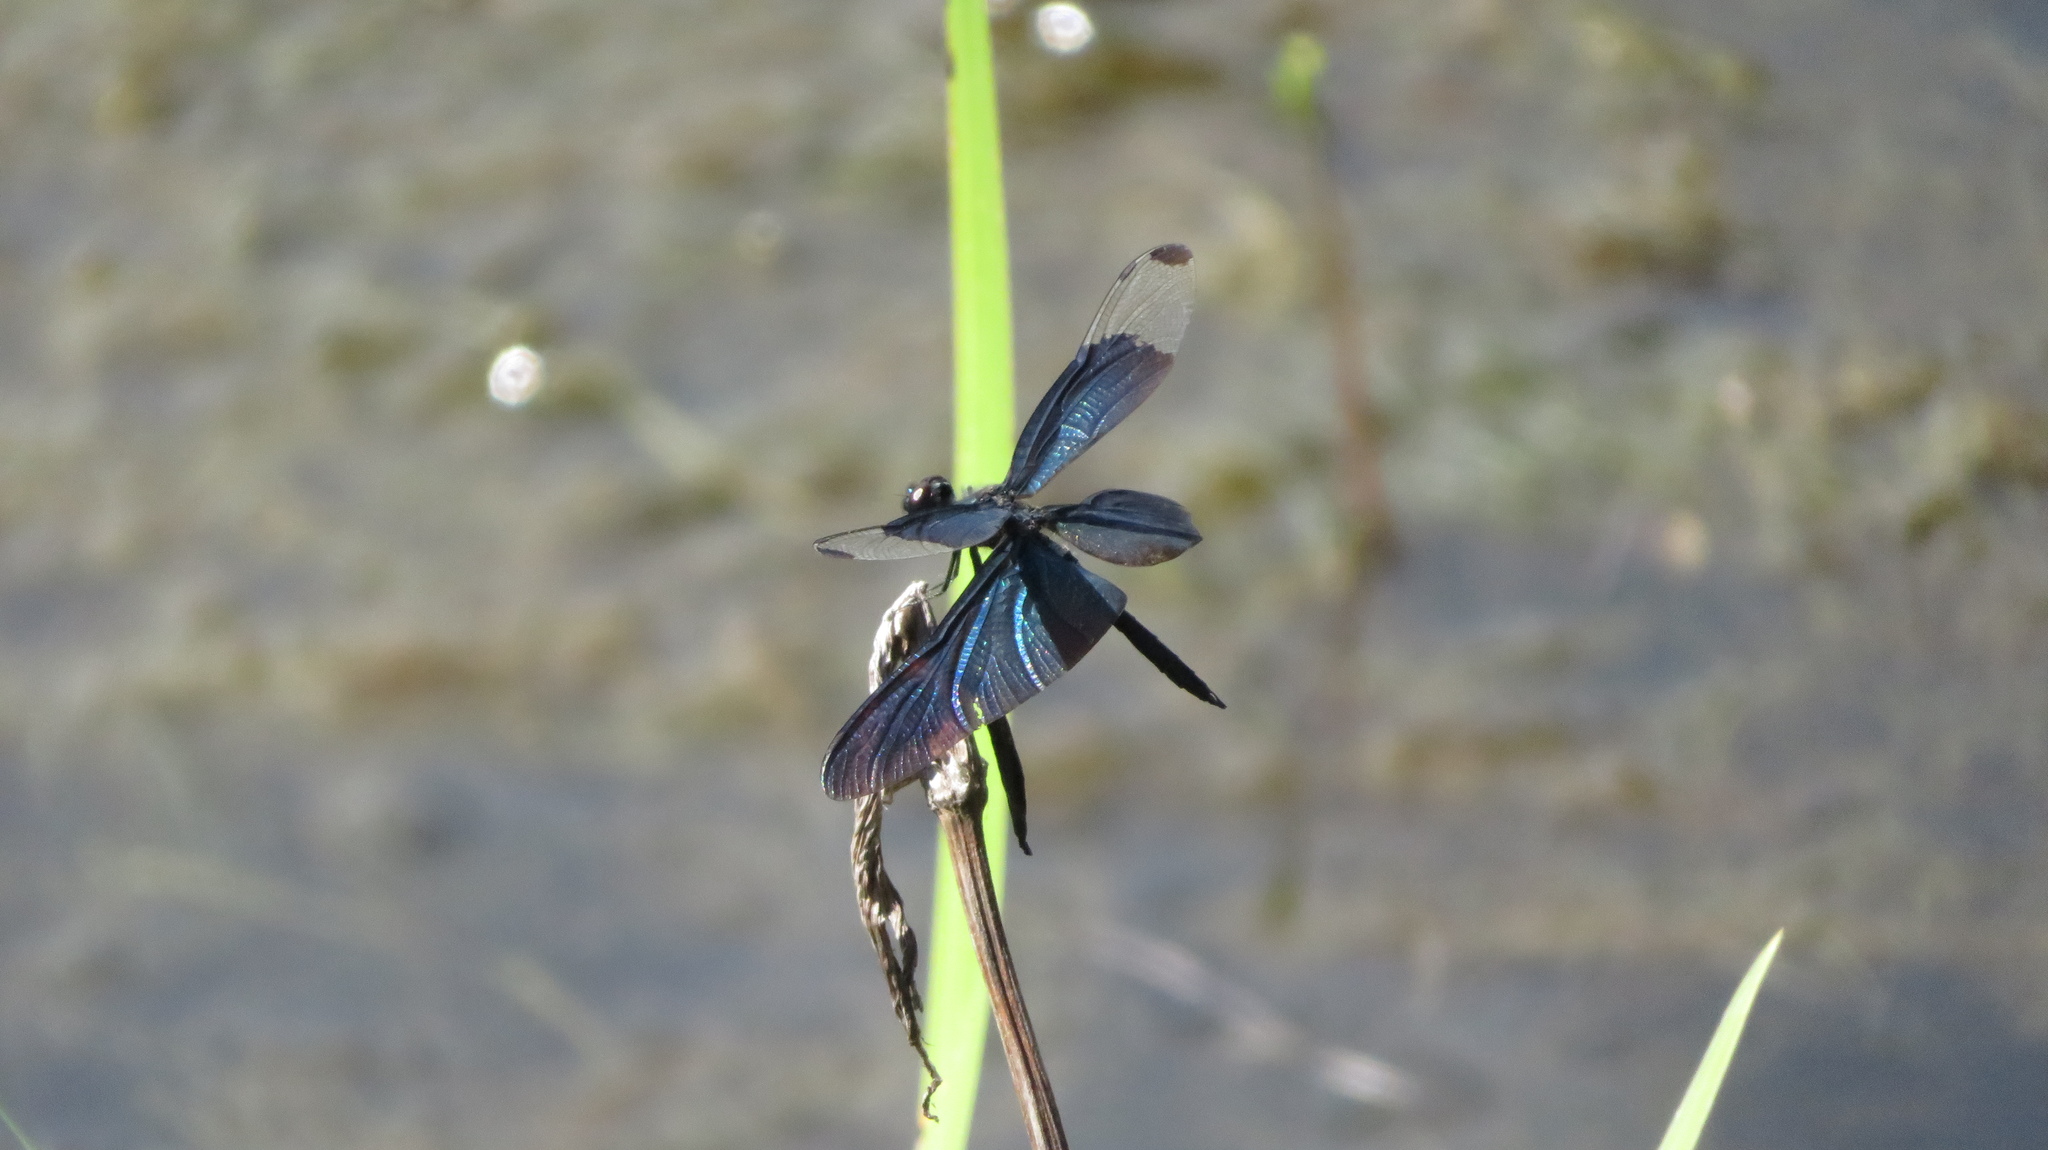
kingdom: Animalia
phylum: Arthropoda
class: Insecta
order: Odonata
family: Libellulidae
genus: Rhyothemis
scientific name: Rhyothemis fuliginosa
